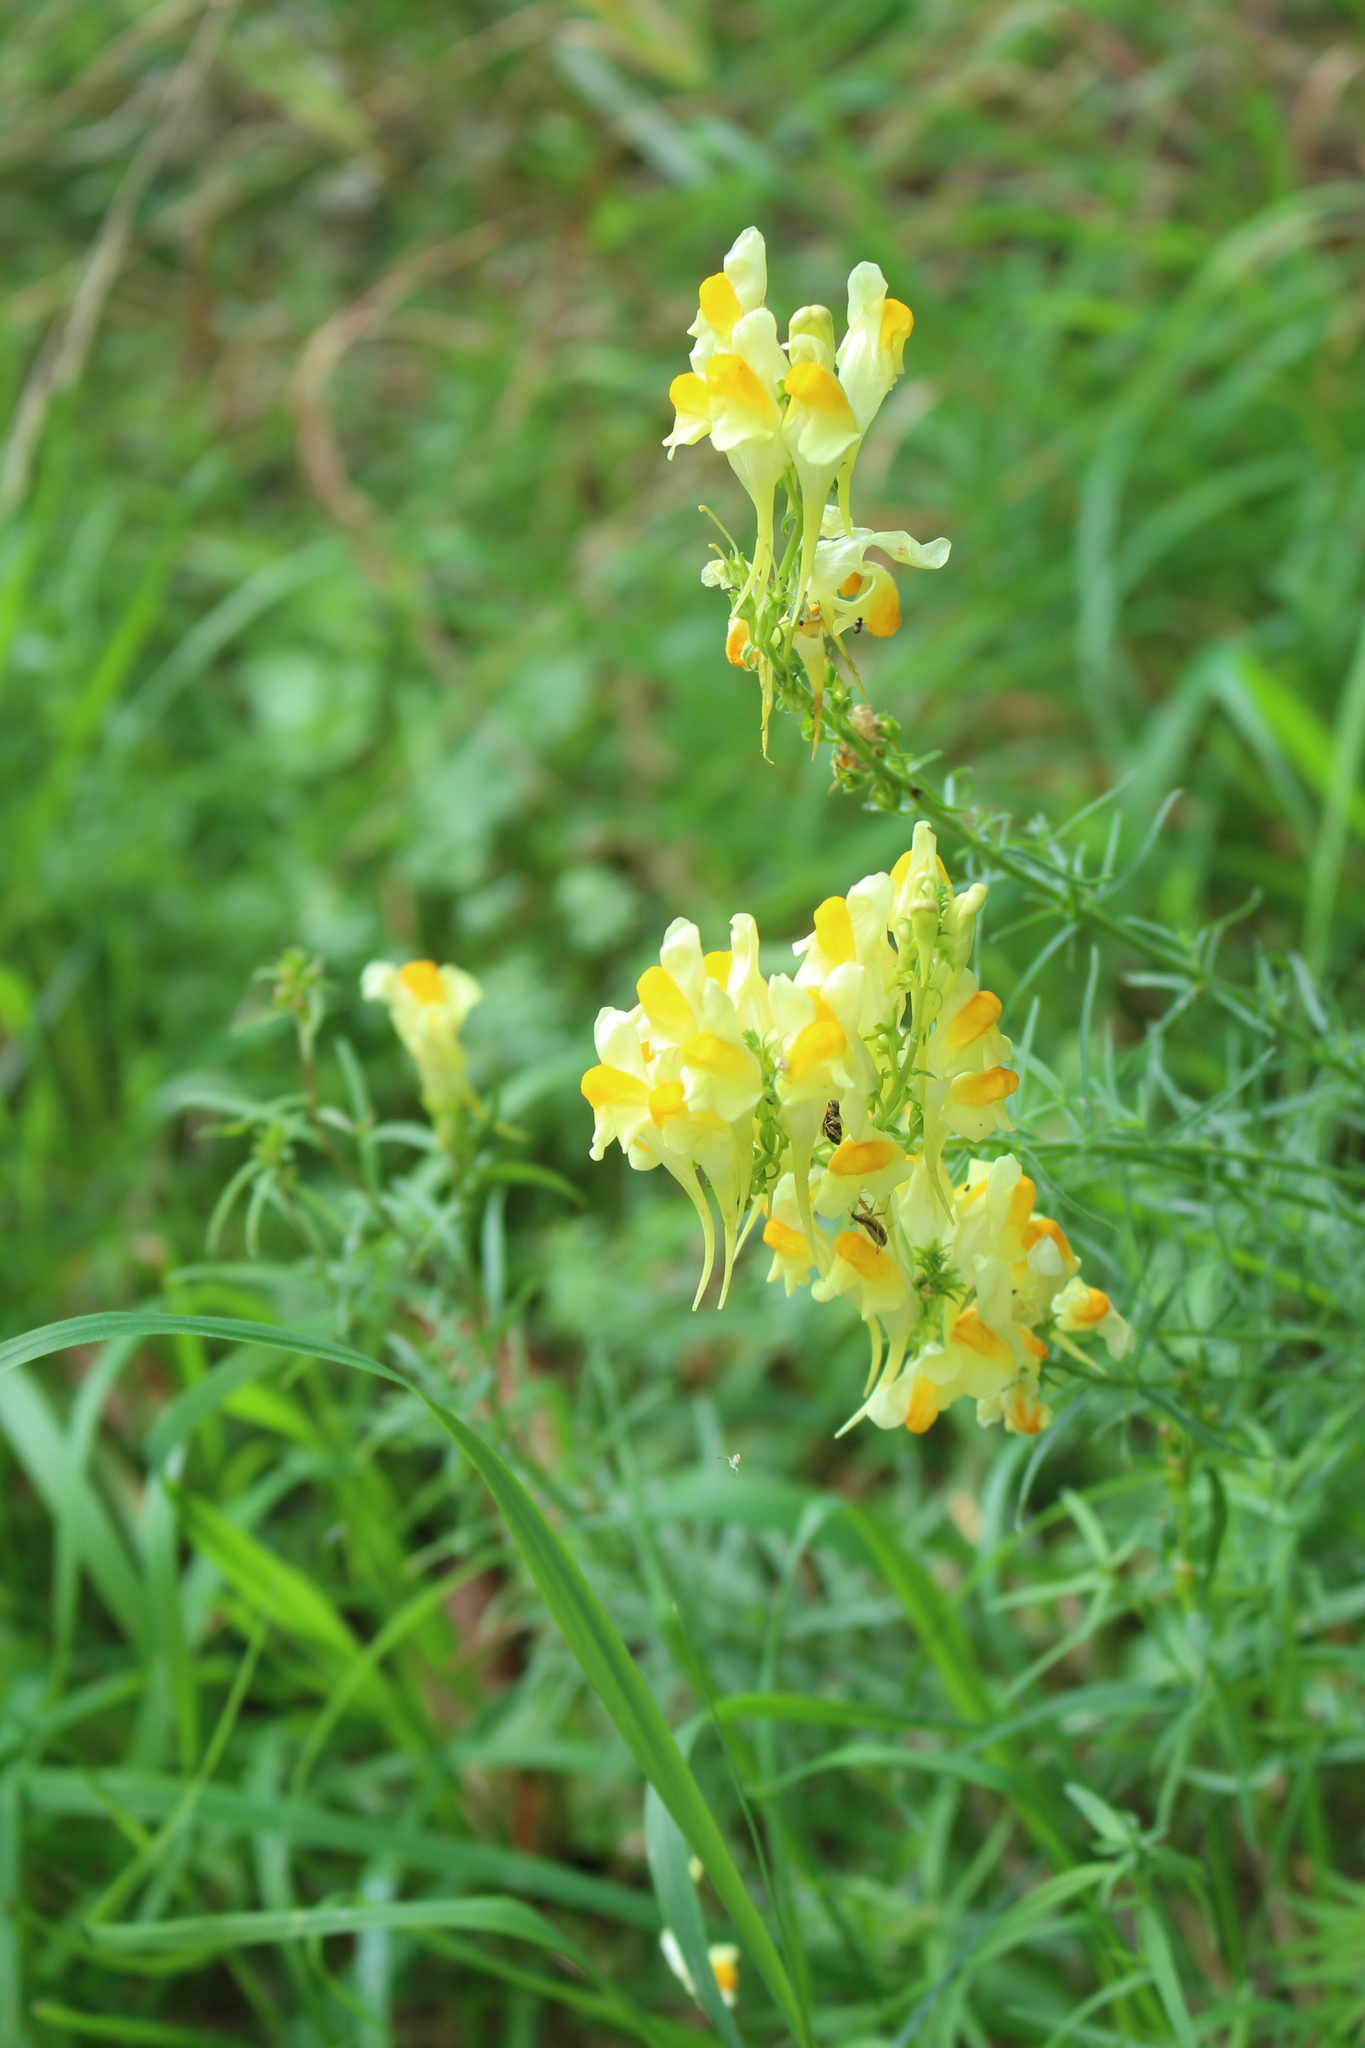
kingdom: Plantae
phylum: Tracheophyta
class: Magnoliopsida
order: Lamiales
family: Plantaginaceae
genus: Linaria
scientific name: Linaria vulgaris
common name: Butter and eggs
